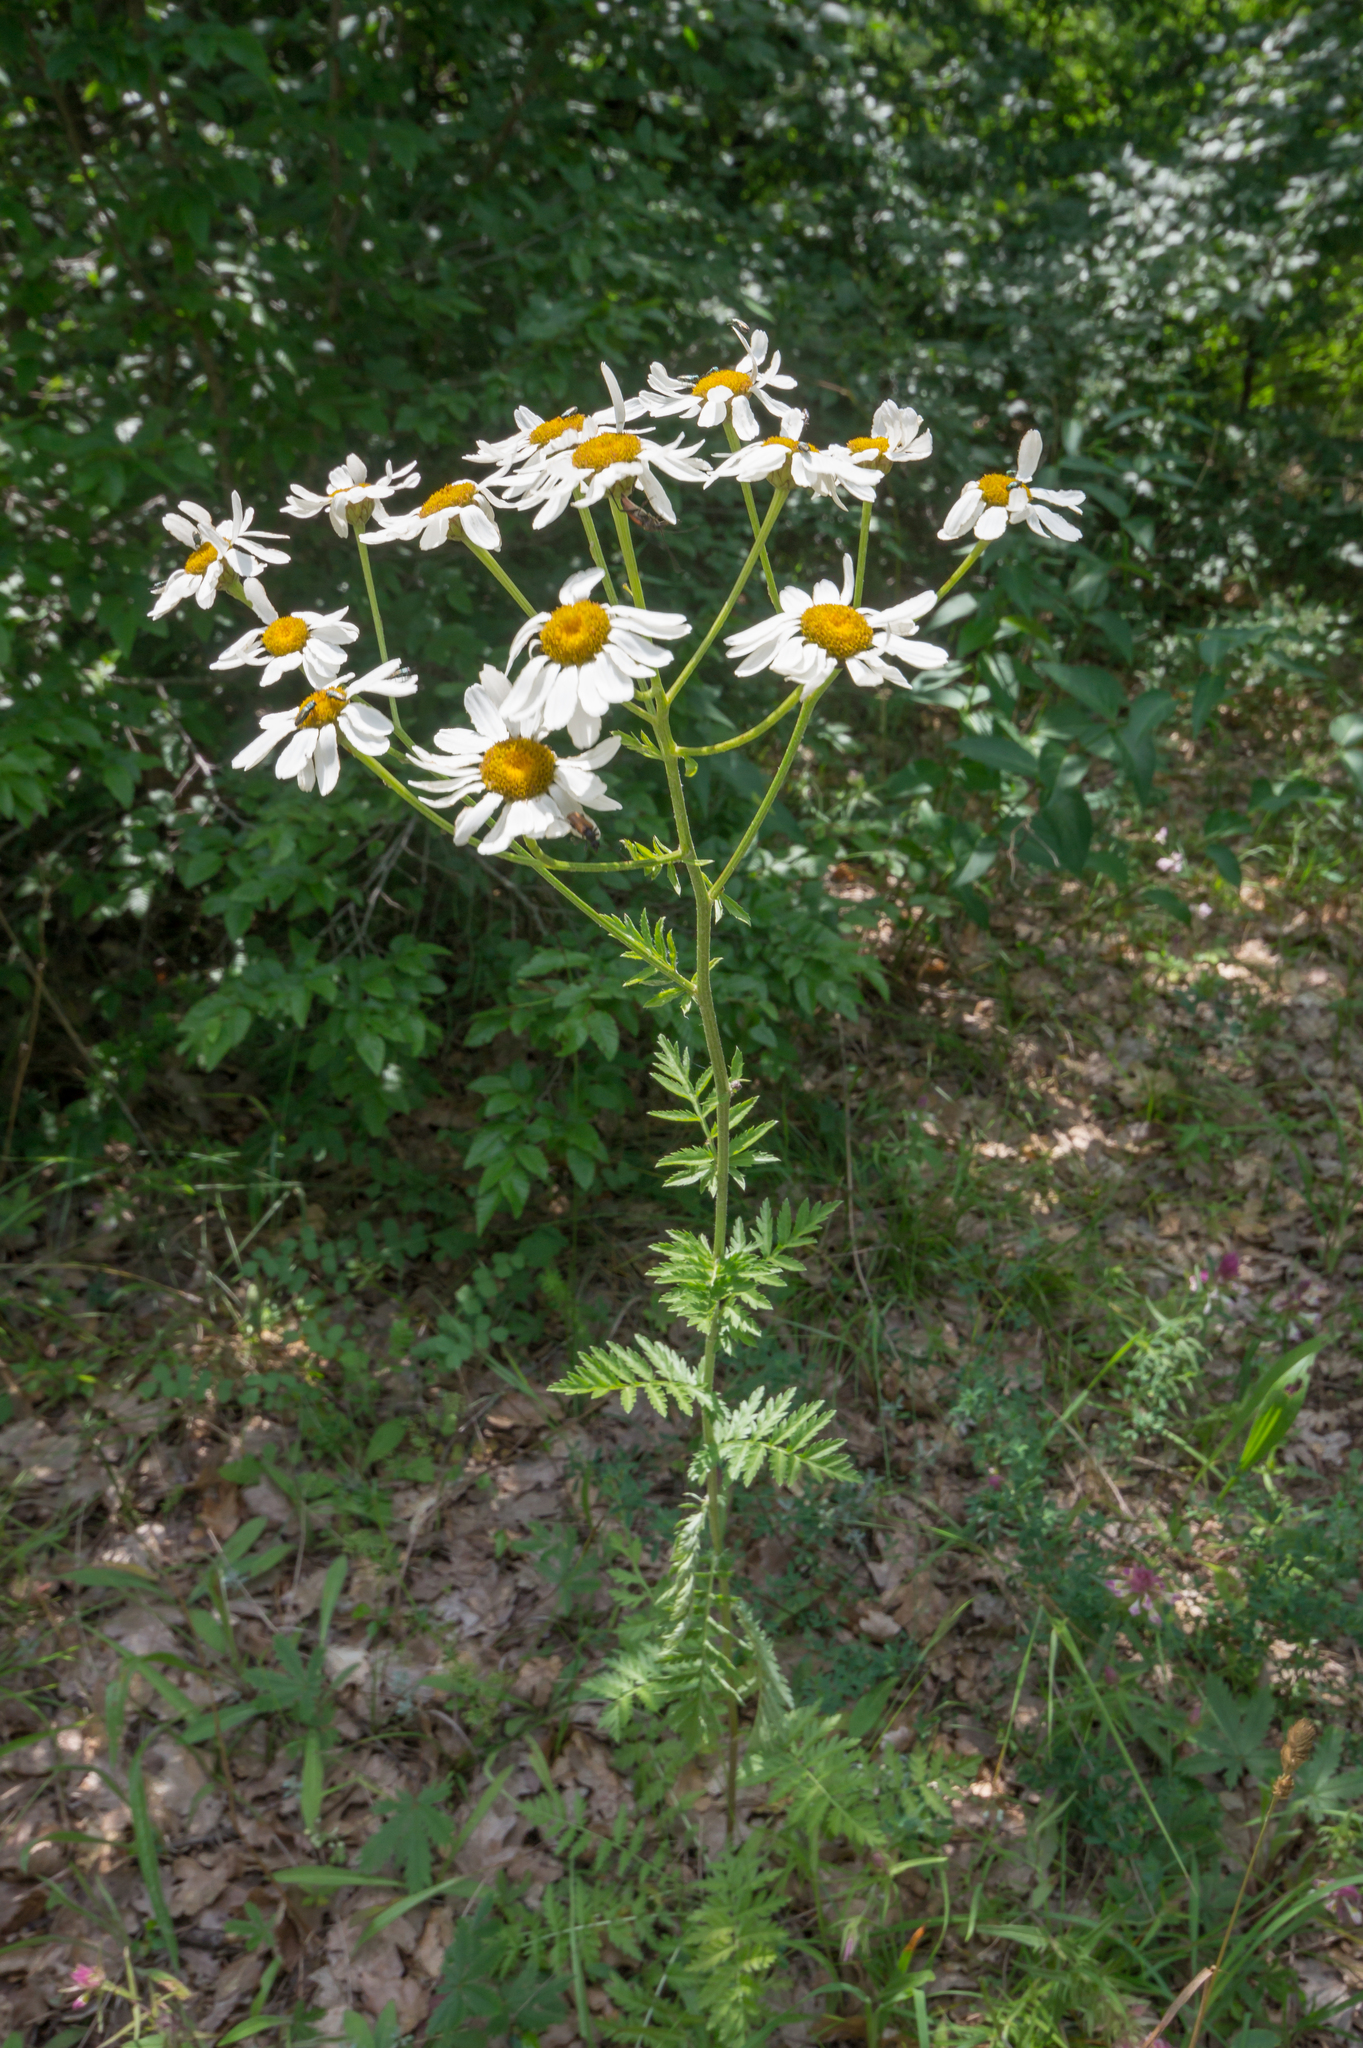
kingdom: Plantae
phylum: Tracheophyta
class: Magnoliopsida
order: Asterales
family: Asteraceae
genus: Tanacetum
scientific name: Tanacetum corymbosum
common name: Scentless feverfew
